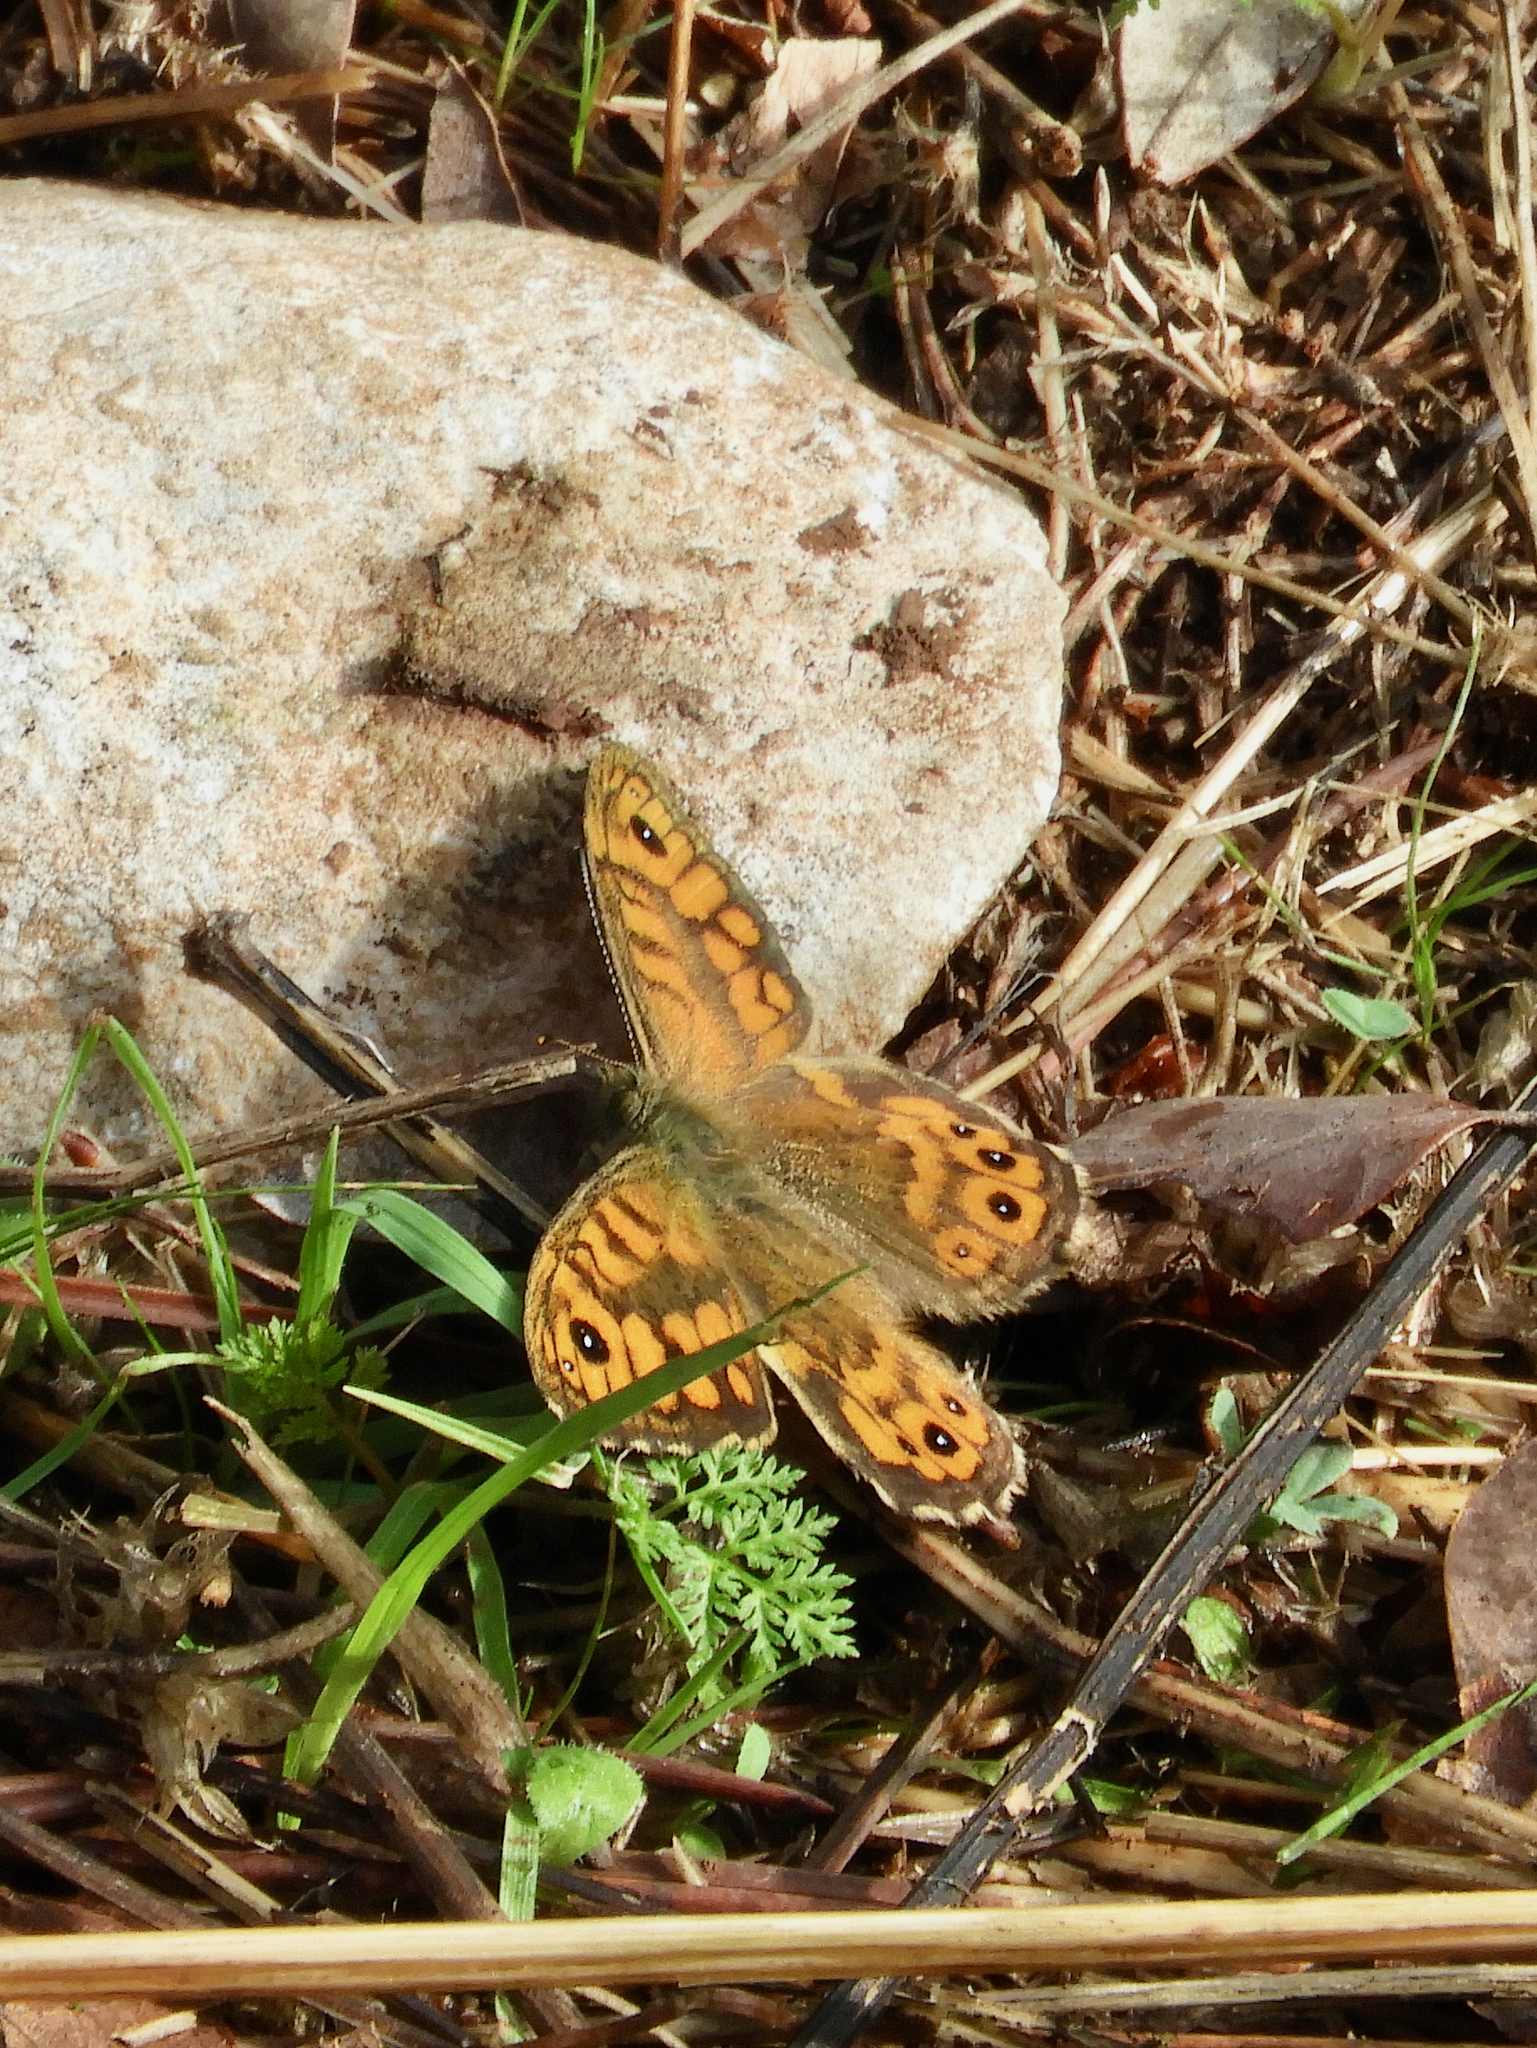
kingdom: Animalia
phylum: Arthropoda
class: Insecta
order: Lepidoptera
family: Nymphalidae
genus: Pararge
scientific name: Pararge Lasiommata megera
